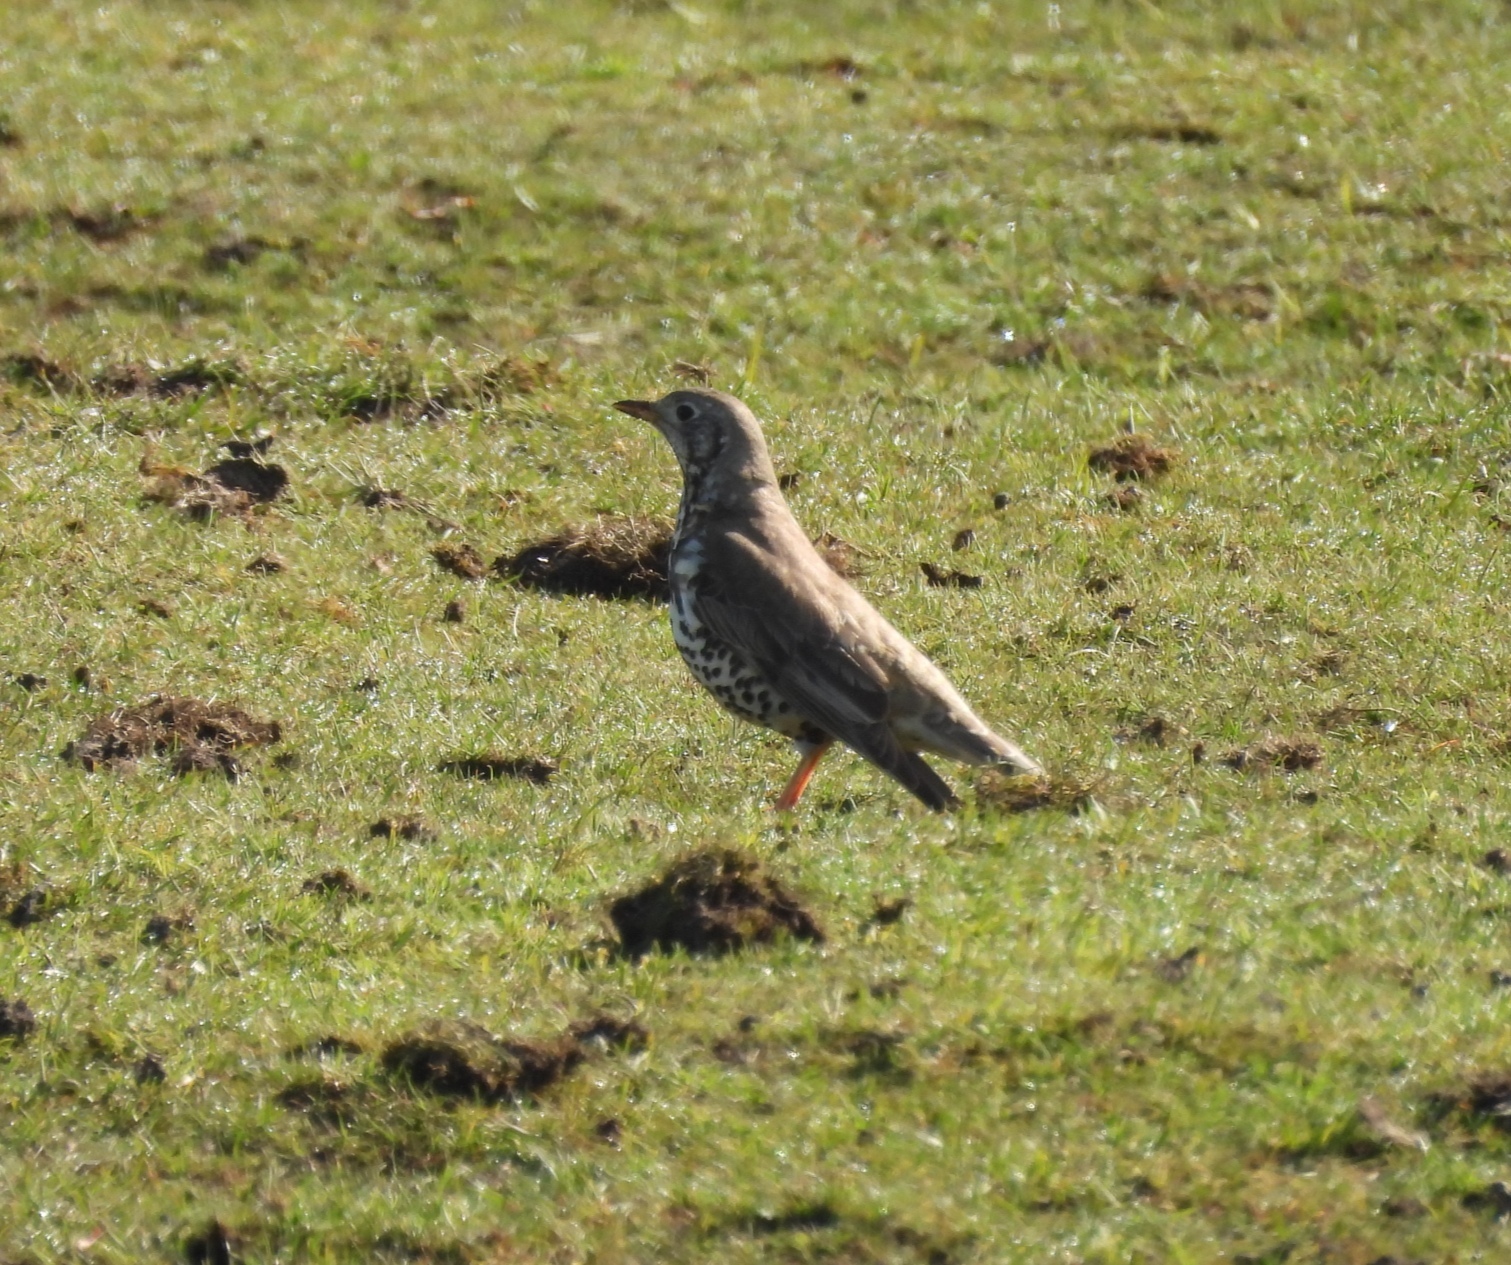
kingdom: Animalia
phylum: Chordata
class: Aves
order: Passeriformes
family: Turdidae
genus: Turdus
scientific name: Turdus viscivorus
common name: Mistle thrush
